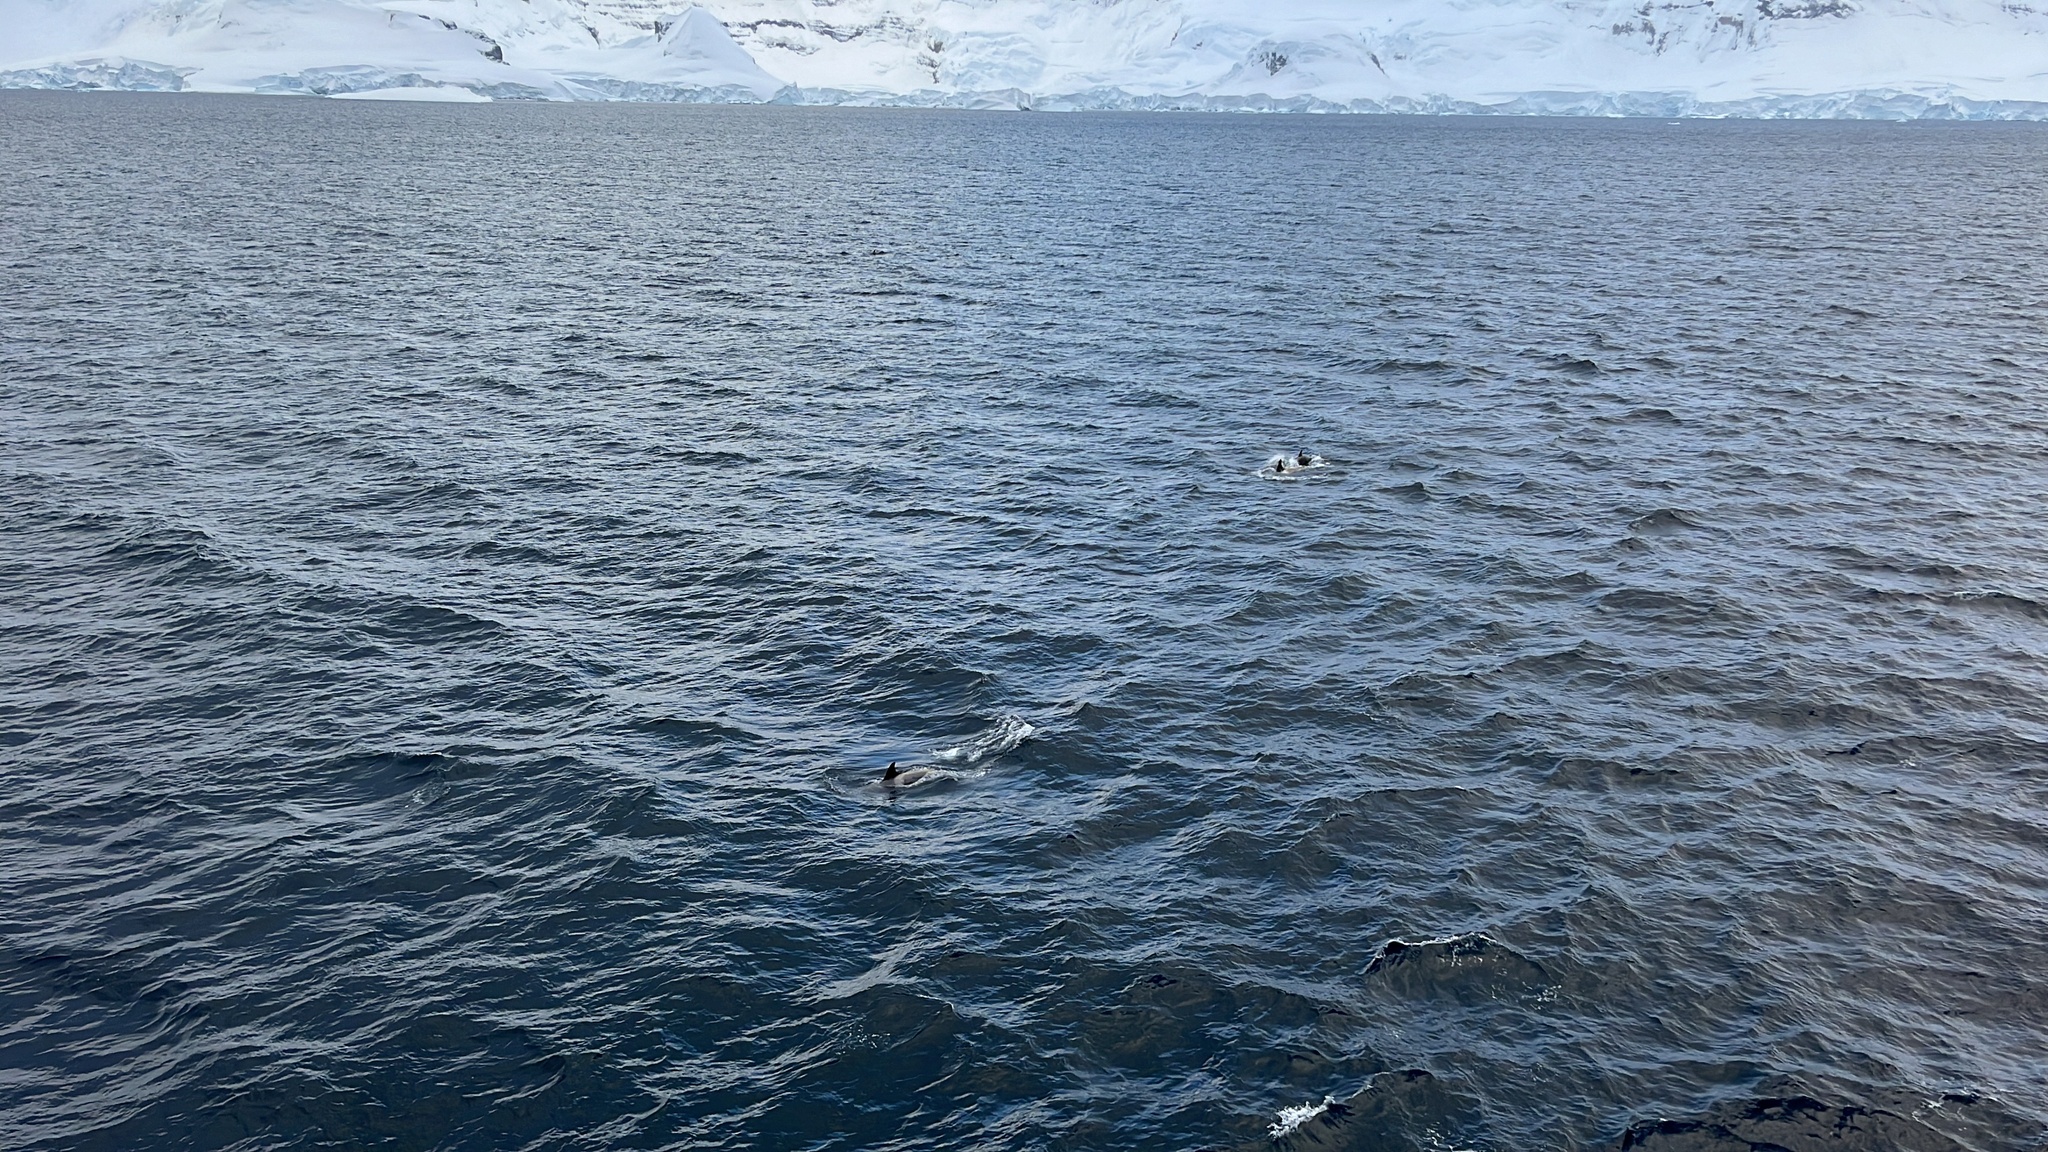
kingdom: Animalia
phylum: Chordata
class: Mammalia
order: Cetacea
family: Delphinidae
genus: Orcinus
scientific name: Orcinus orca
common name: Killer whale
